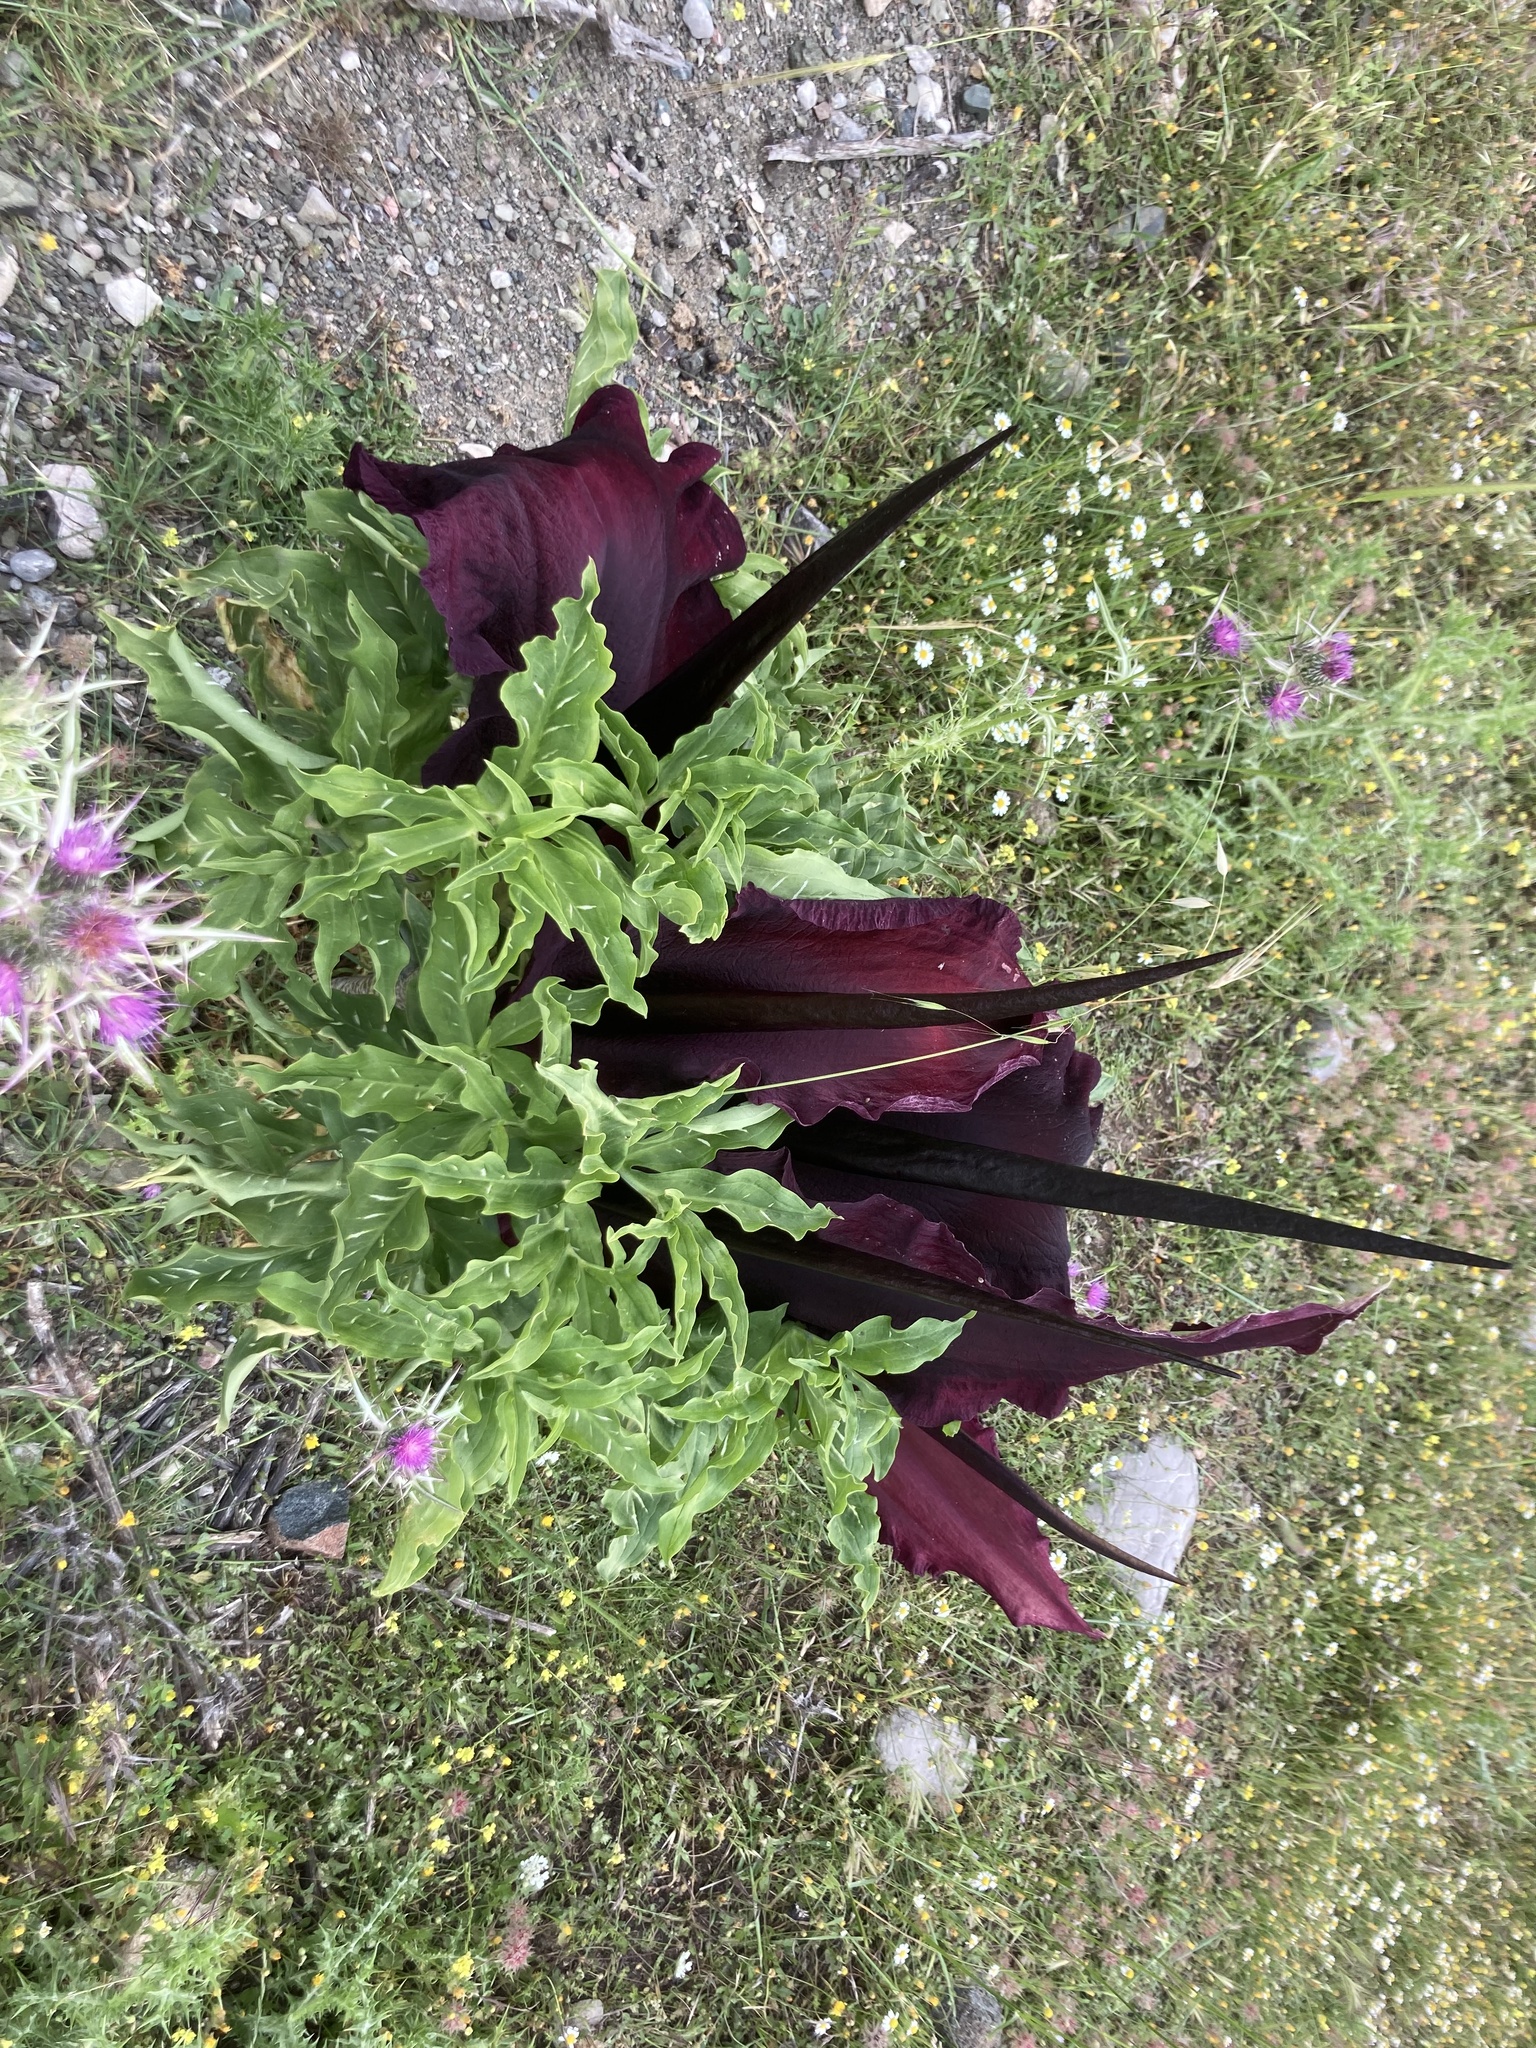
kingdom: Plantae
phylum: Tracheophyta
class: Liliopsida
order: Alismatales
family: Araceae
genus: Dracunculus
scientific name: Dracunculus vulgaris
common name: Dragon arum
